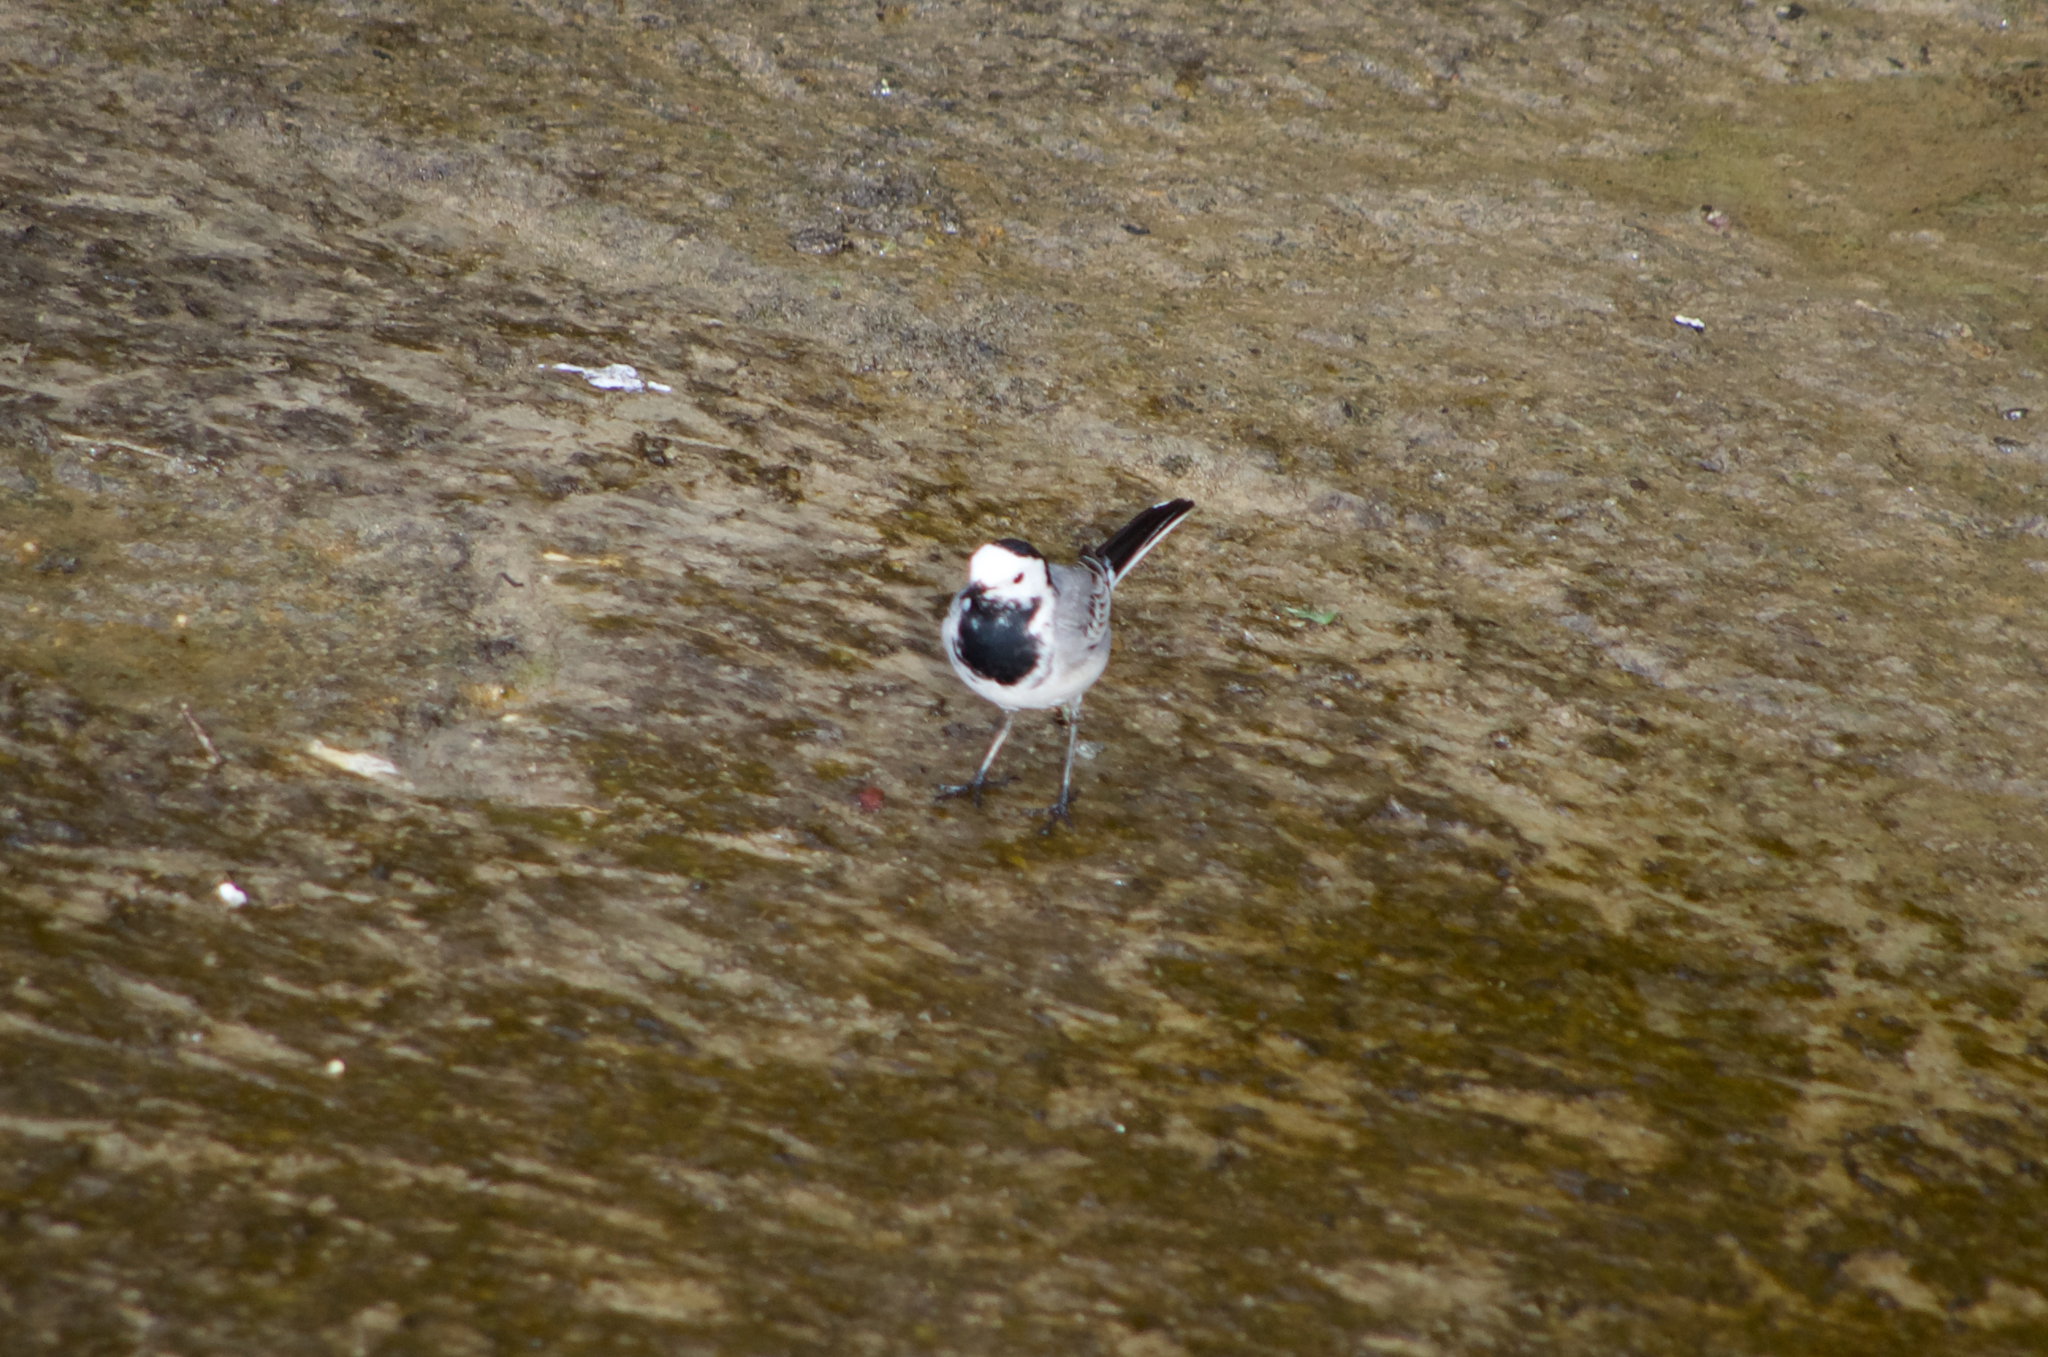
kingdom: Animalia
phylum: Chordata
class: Aves
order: Passeriformes
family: Motacillidae
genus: Motacilla
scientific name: Motacilla alba
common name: White wagtail
